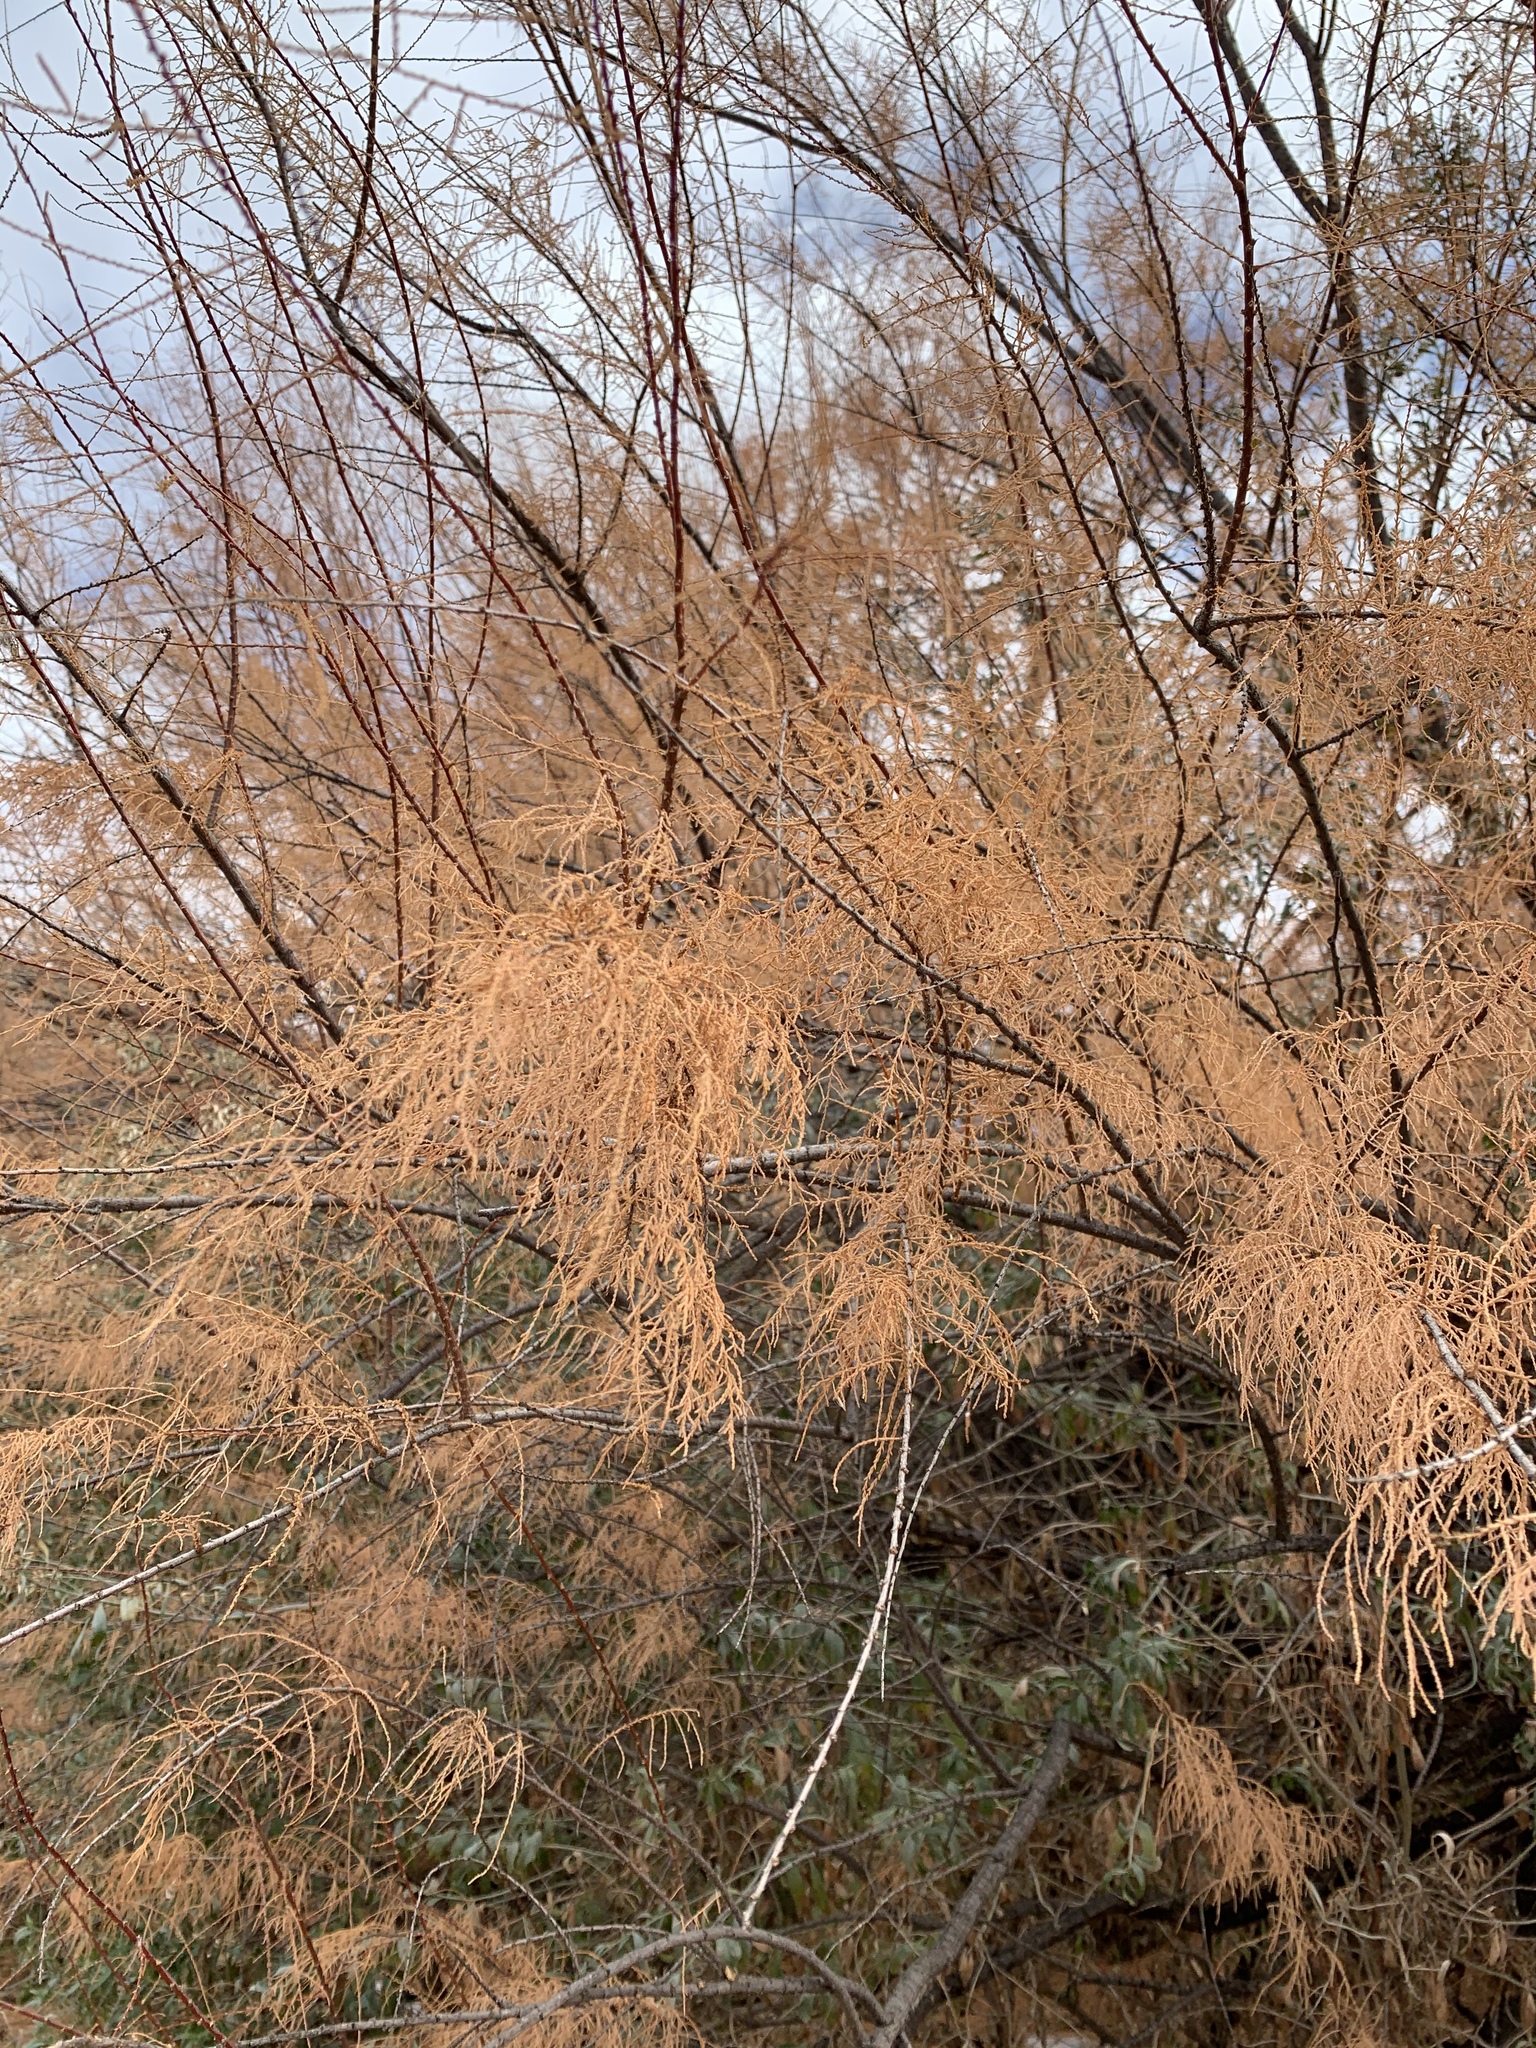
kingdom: Plantae
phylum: Tracheophyta
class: Magnoliopsida
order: Caryophyllales
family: Tamaricaceae
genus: Tamarix
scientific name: Tamarix ramosissima
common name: Pink tamarisk
